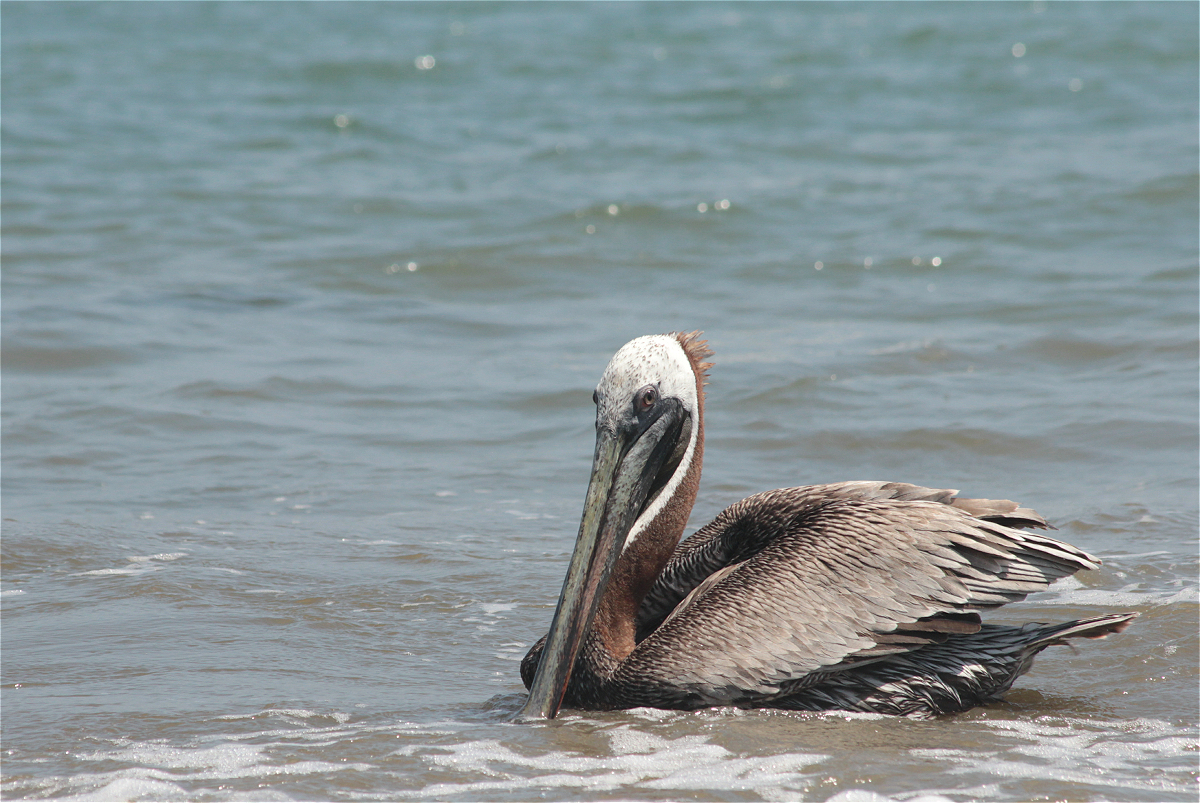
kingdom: Animalia
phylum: Chordata
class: Aves
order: Pelecaniformes
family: Pelecanidae
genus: Pelecanus
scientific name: Pelecanus occidentalis
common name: Brown pelican
